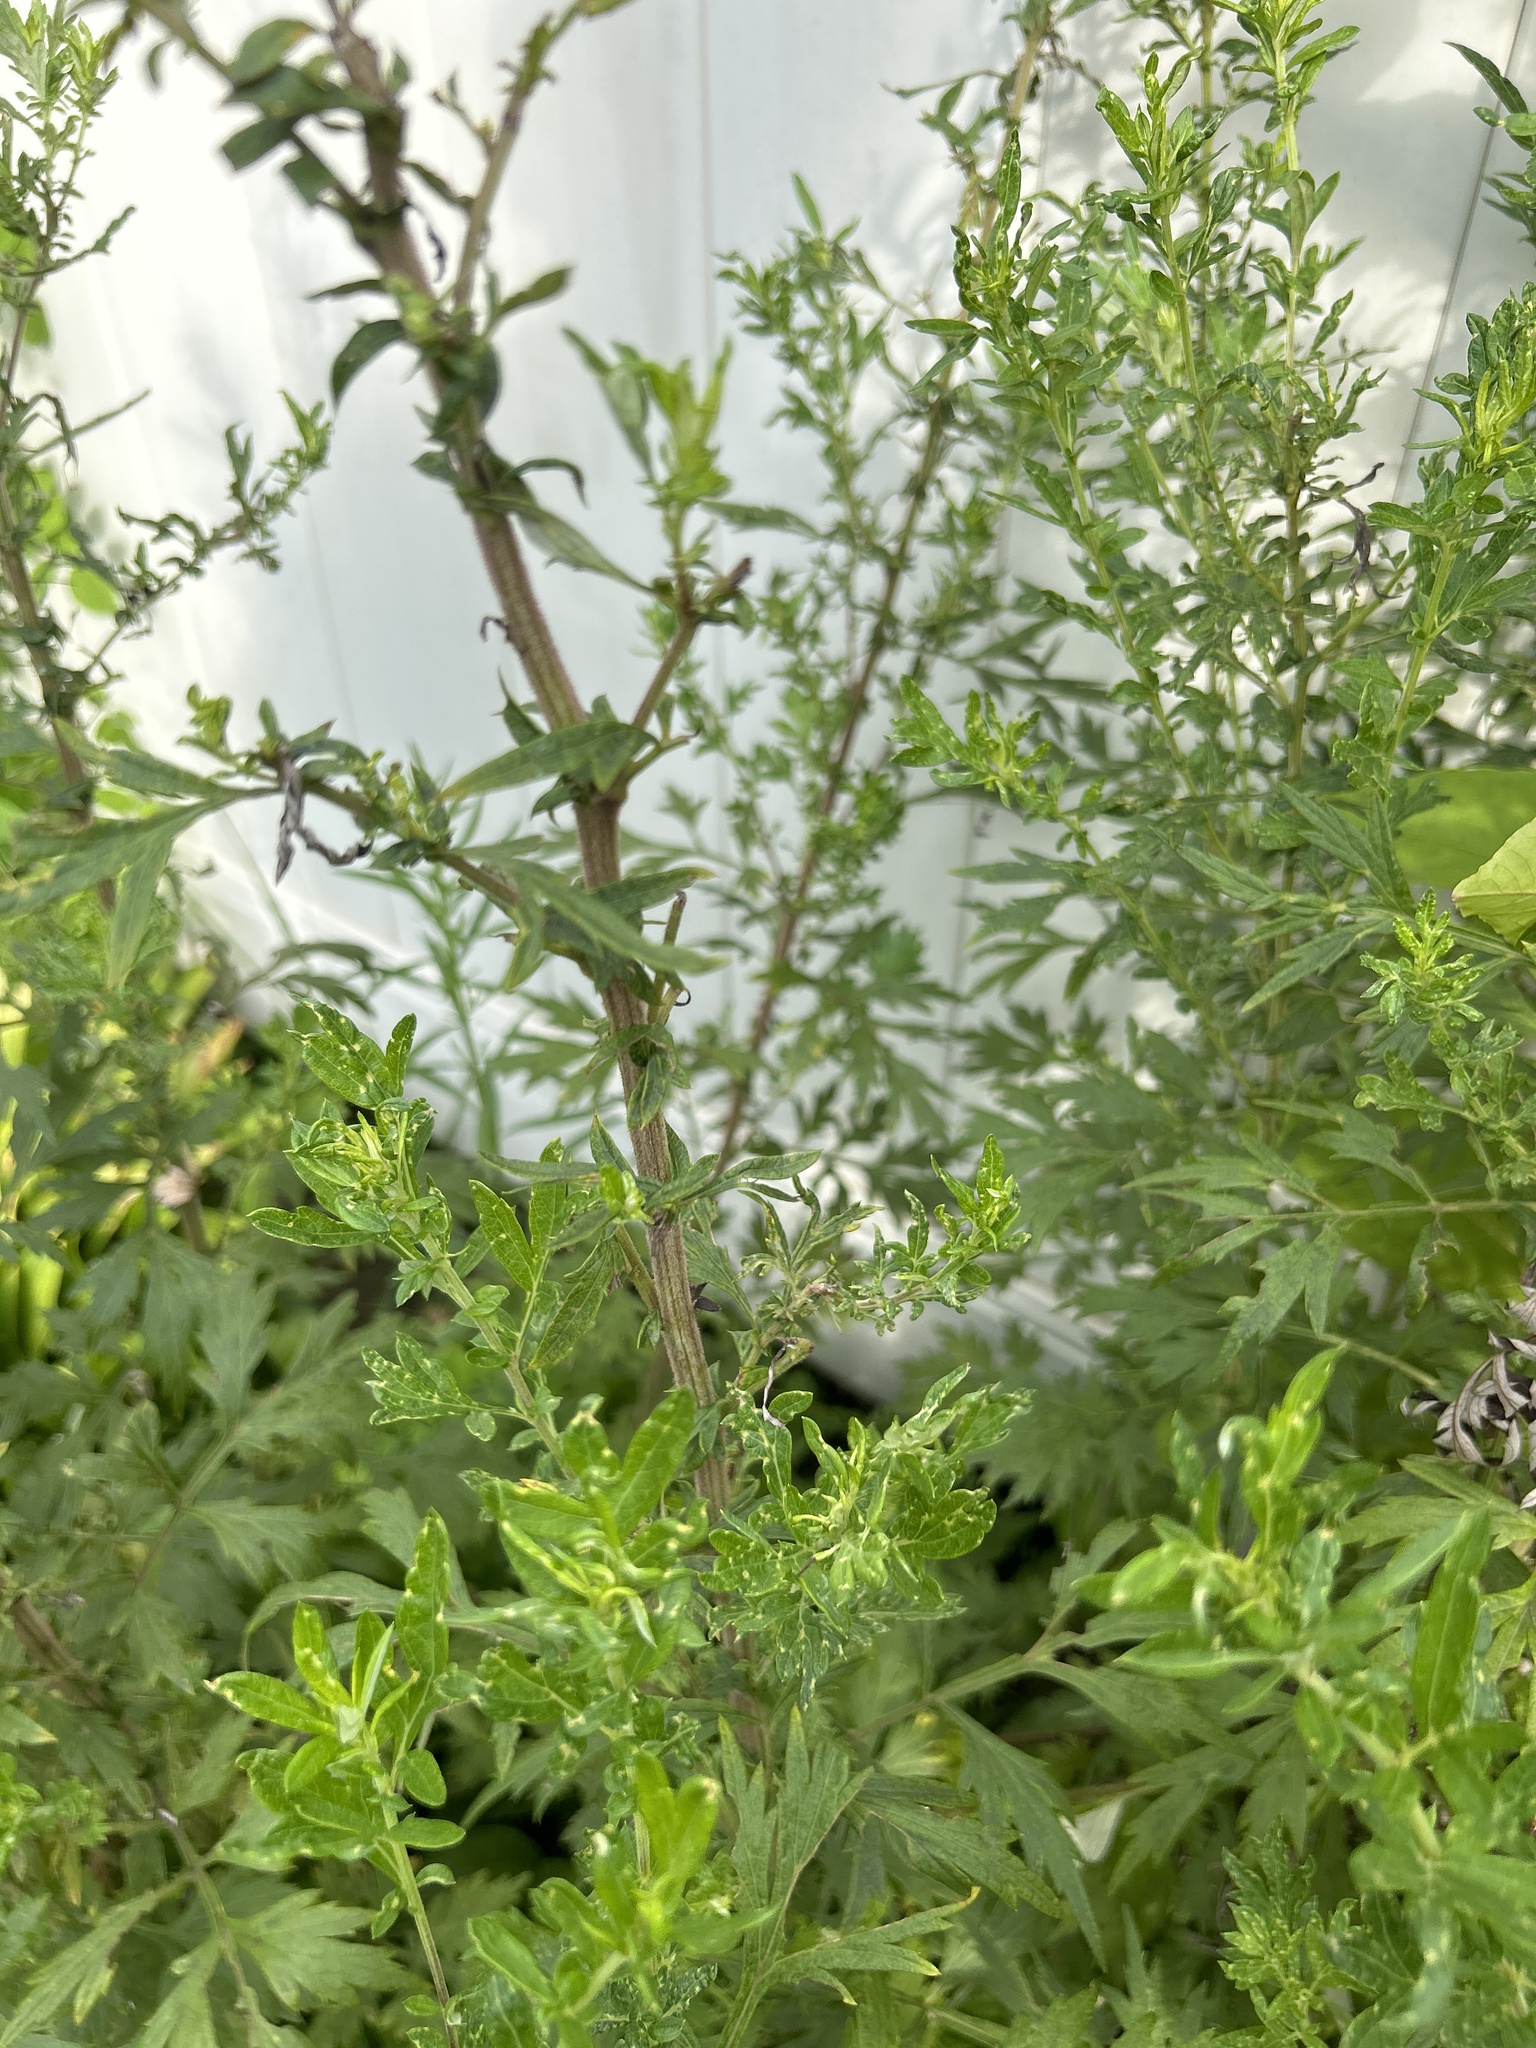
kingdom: Plantae
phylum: Tracheophyta
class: Magnoliopsida
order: Asterales
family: Asteraceae
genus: Artemisia
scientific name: Artemisia vulgaris
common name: Mugwort
